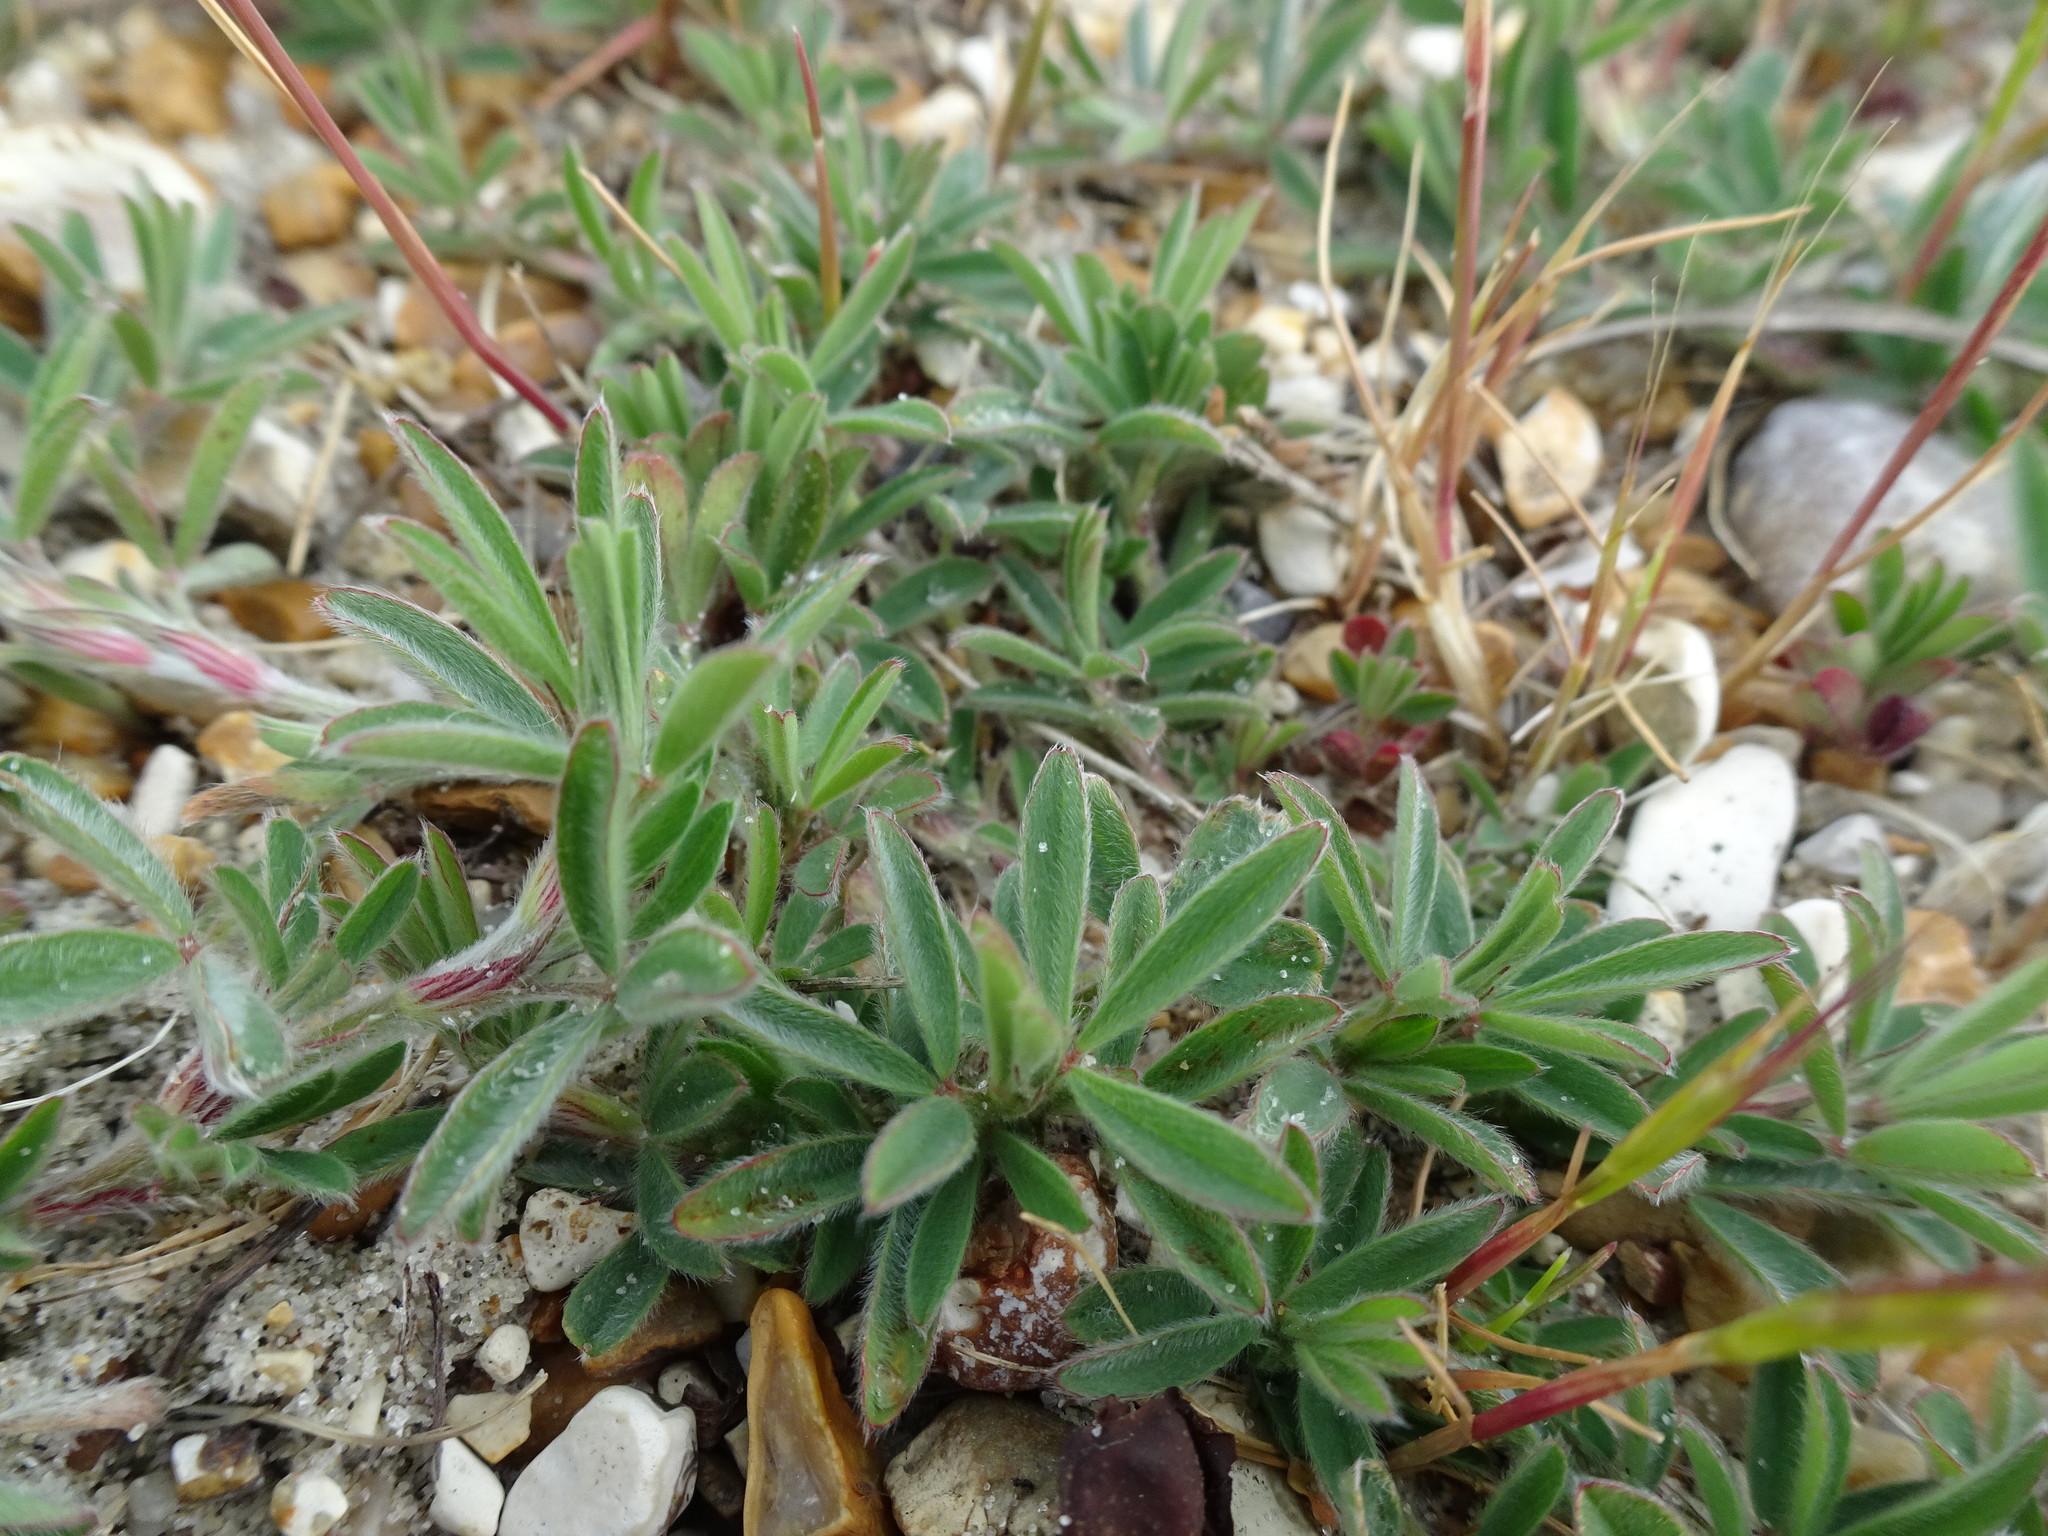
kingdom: Plantae
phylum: Tracheophyta
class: Magnoliopsida
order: Fabales
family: Fabaceae
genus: Trifolium
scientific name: Trifolium arvense
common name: Hare's-foot clover
